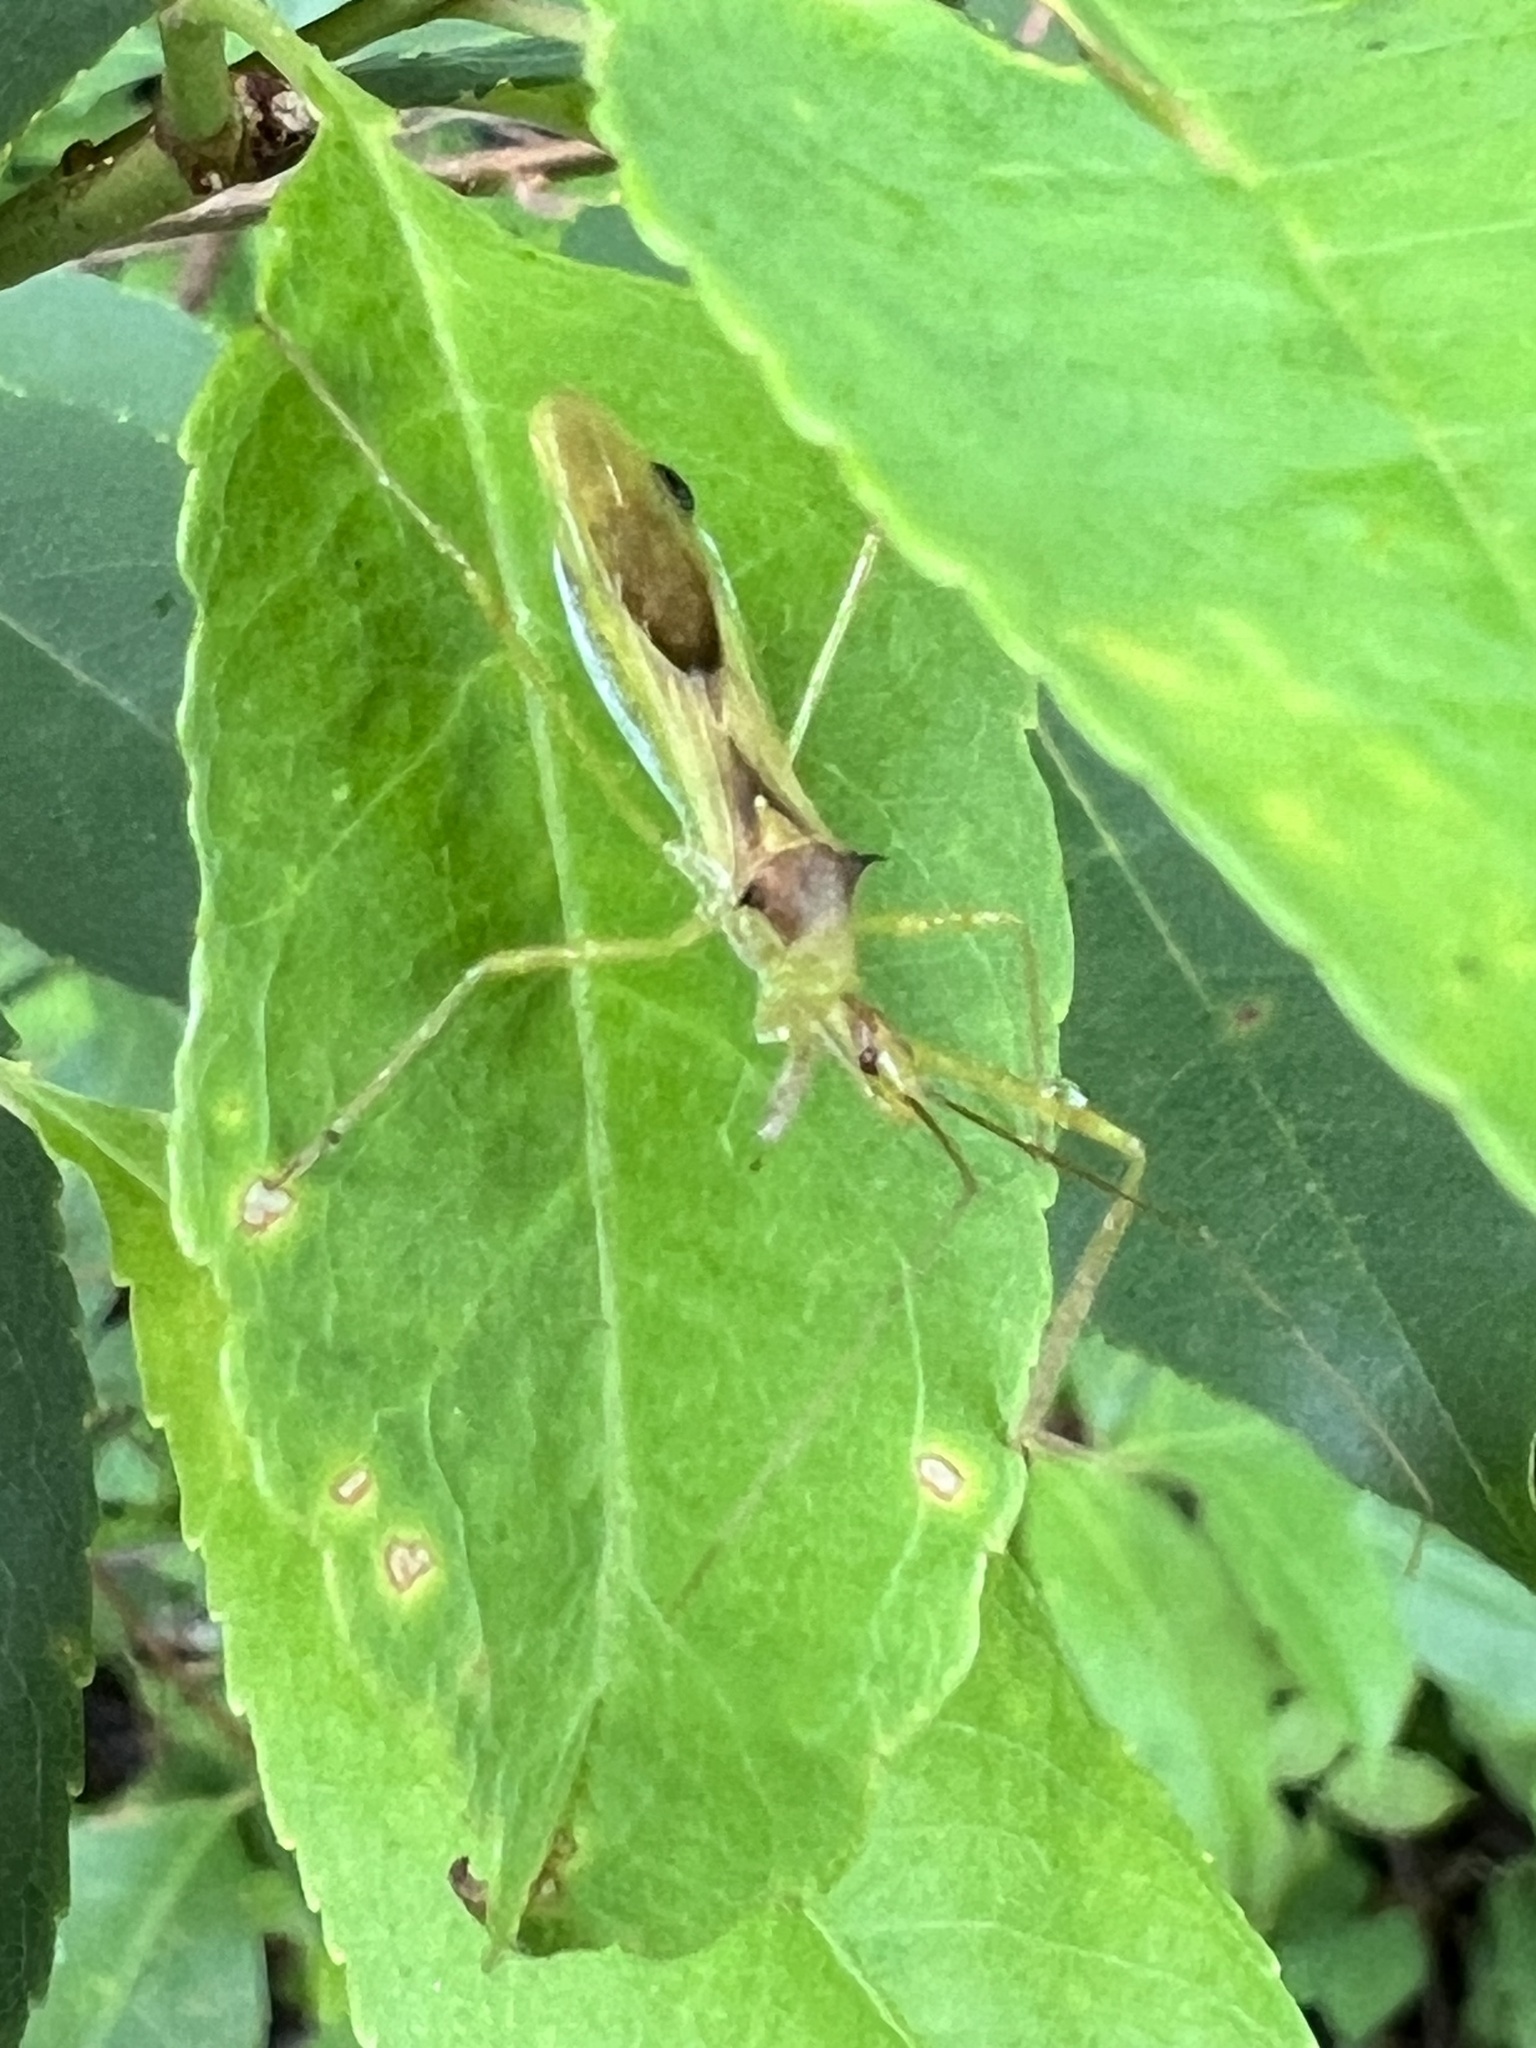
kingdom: Animalia
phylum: Arthropoda
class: Insecta
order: Hemiptera
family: Reduviidae
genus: Zelus
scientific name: Zelus luridus
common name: Pale green assassin bug
